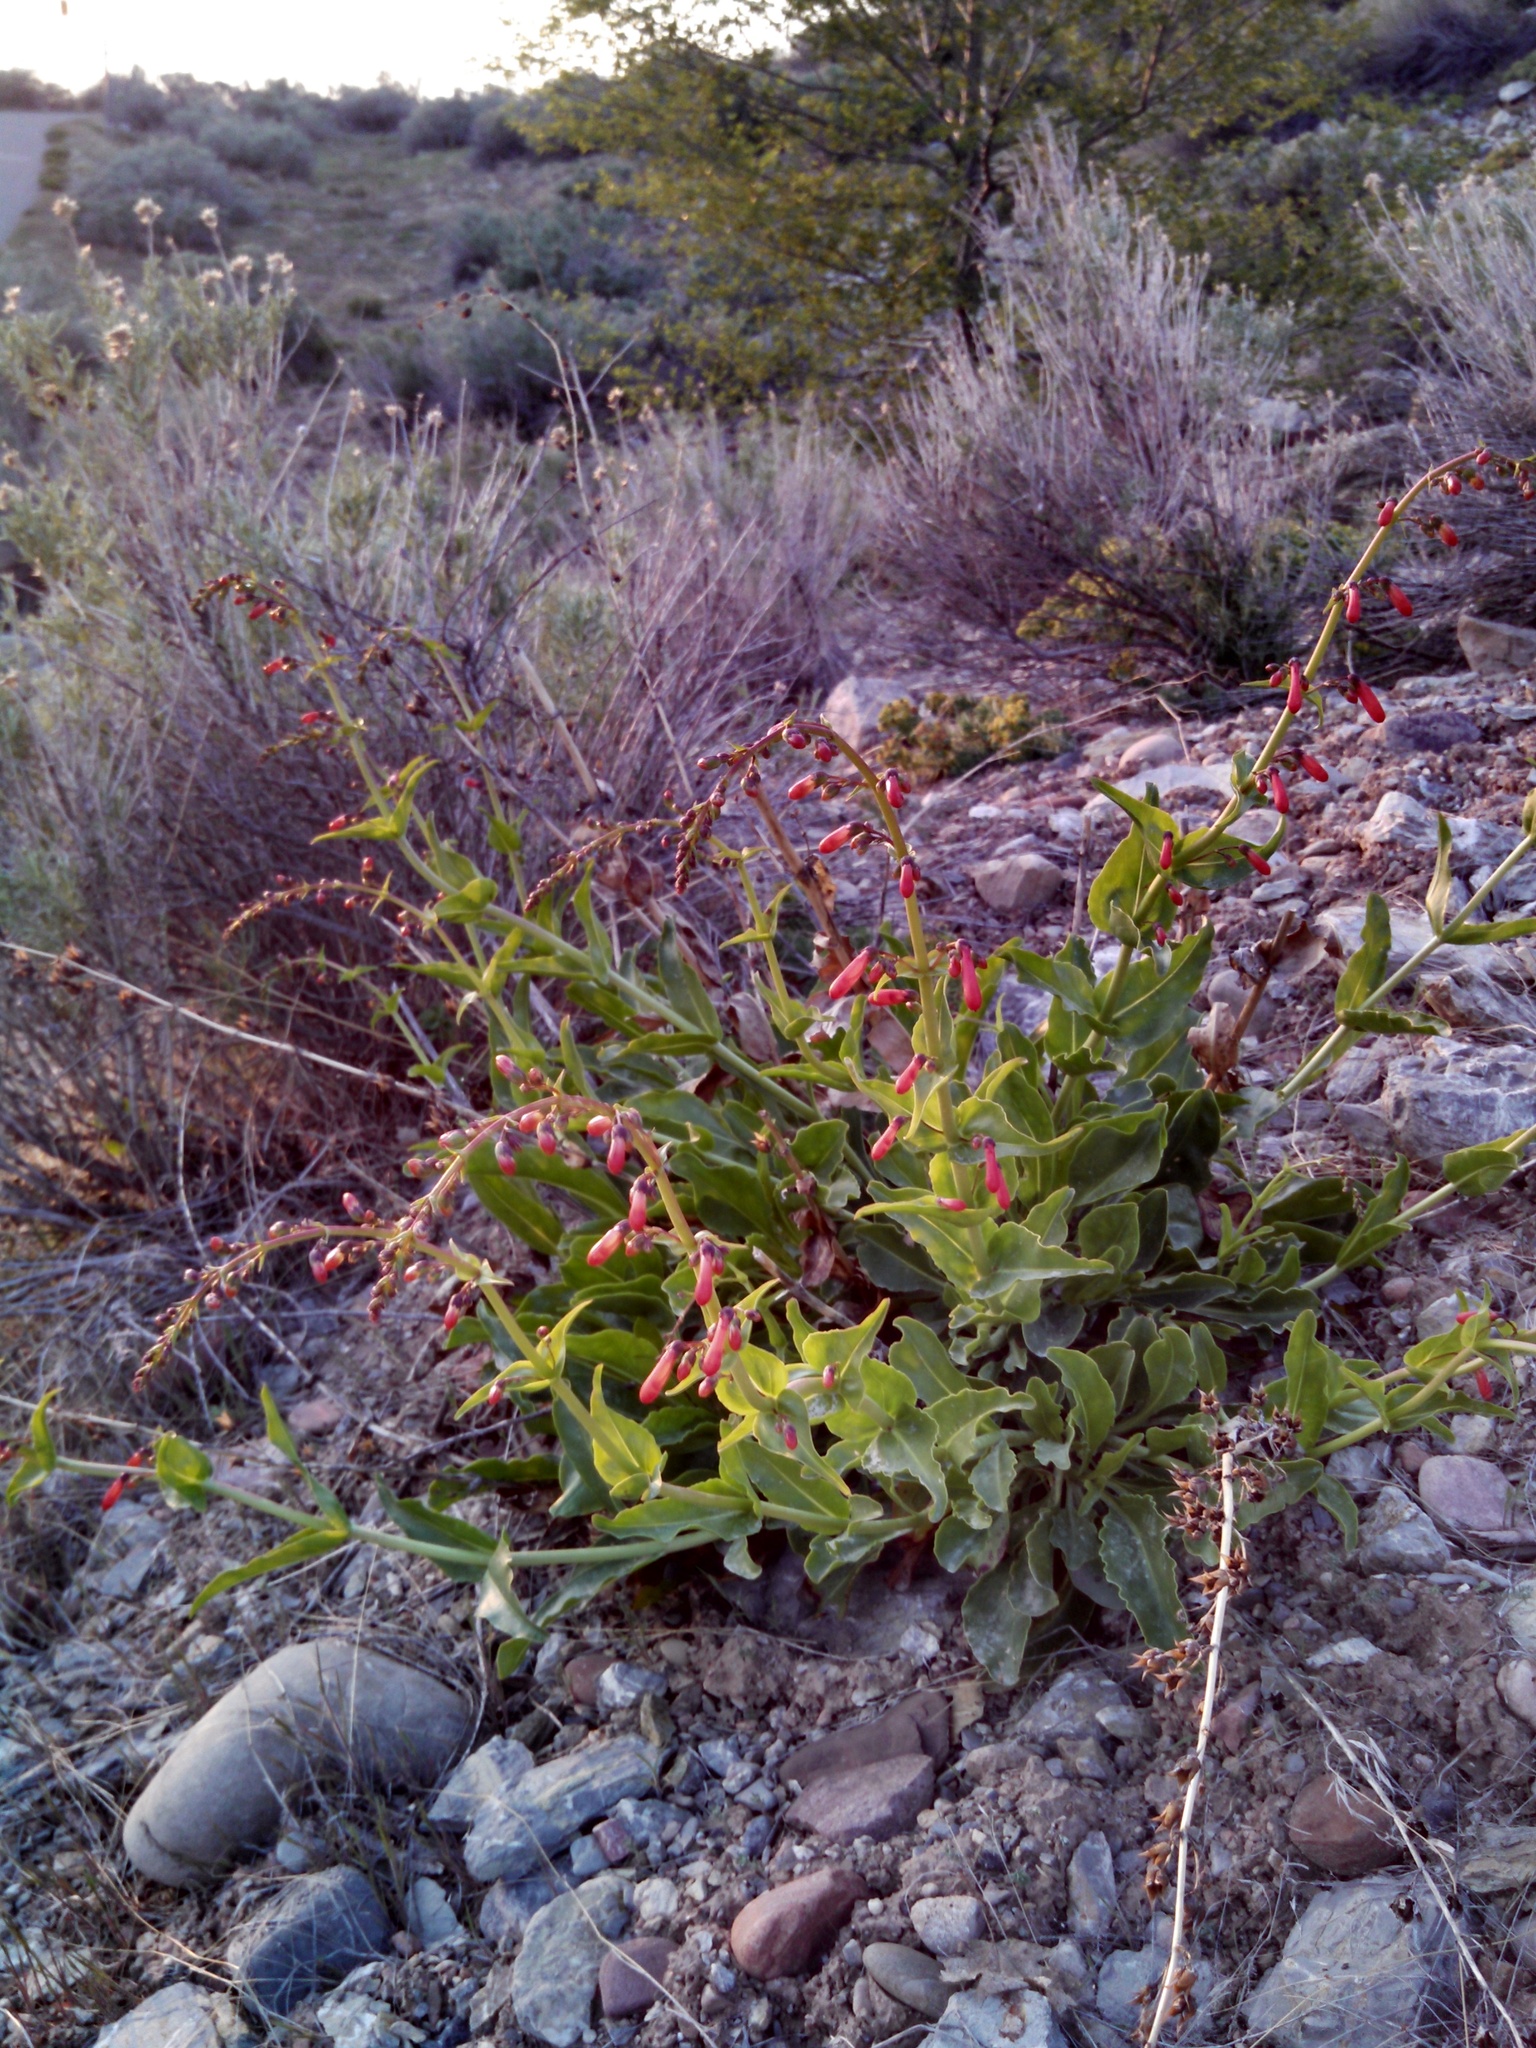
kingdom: Plantae
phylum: Tracheophyta
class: Magnoliopsida
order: Lamiales
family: Plantaginaceae
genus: Penstemon
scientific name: Penstemon eatonii
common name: Eaton's penstemon
